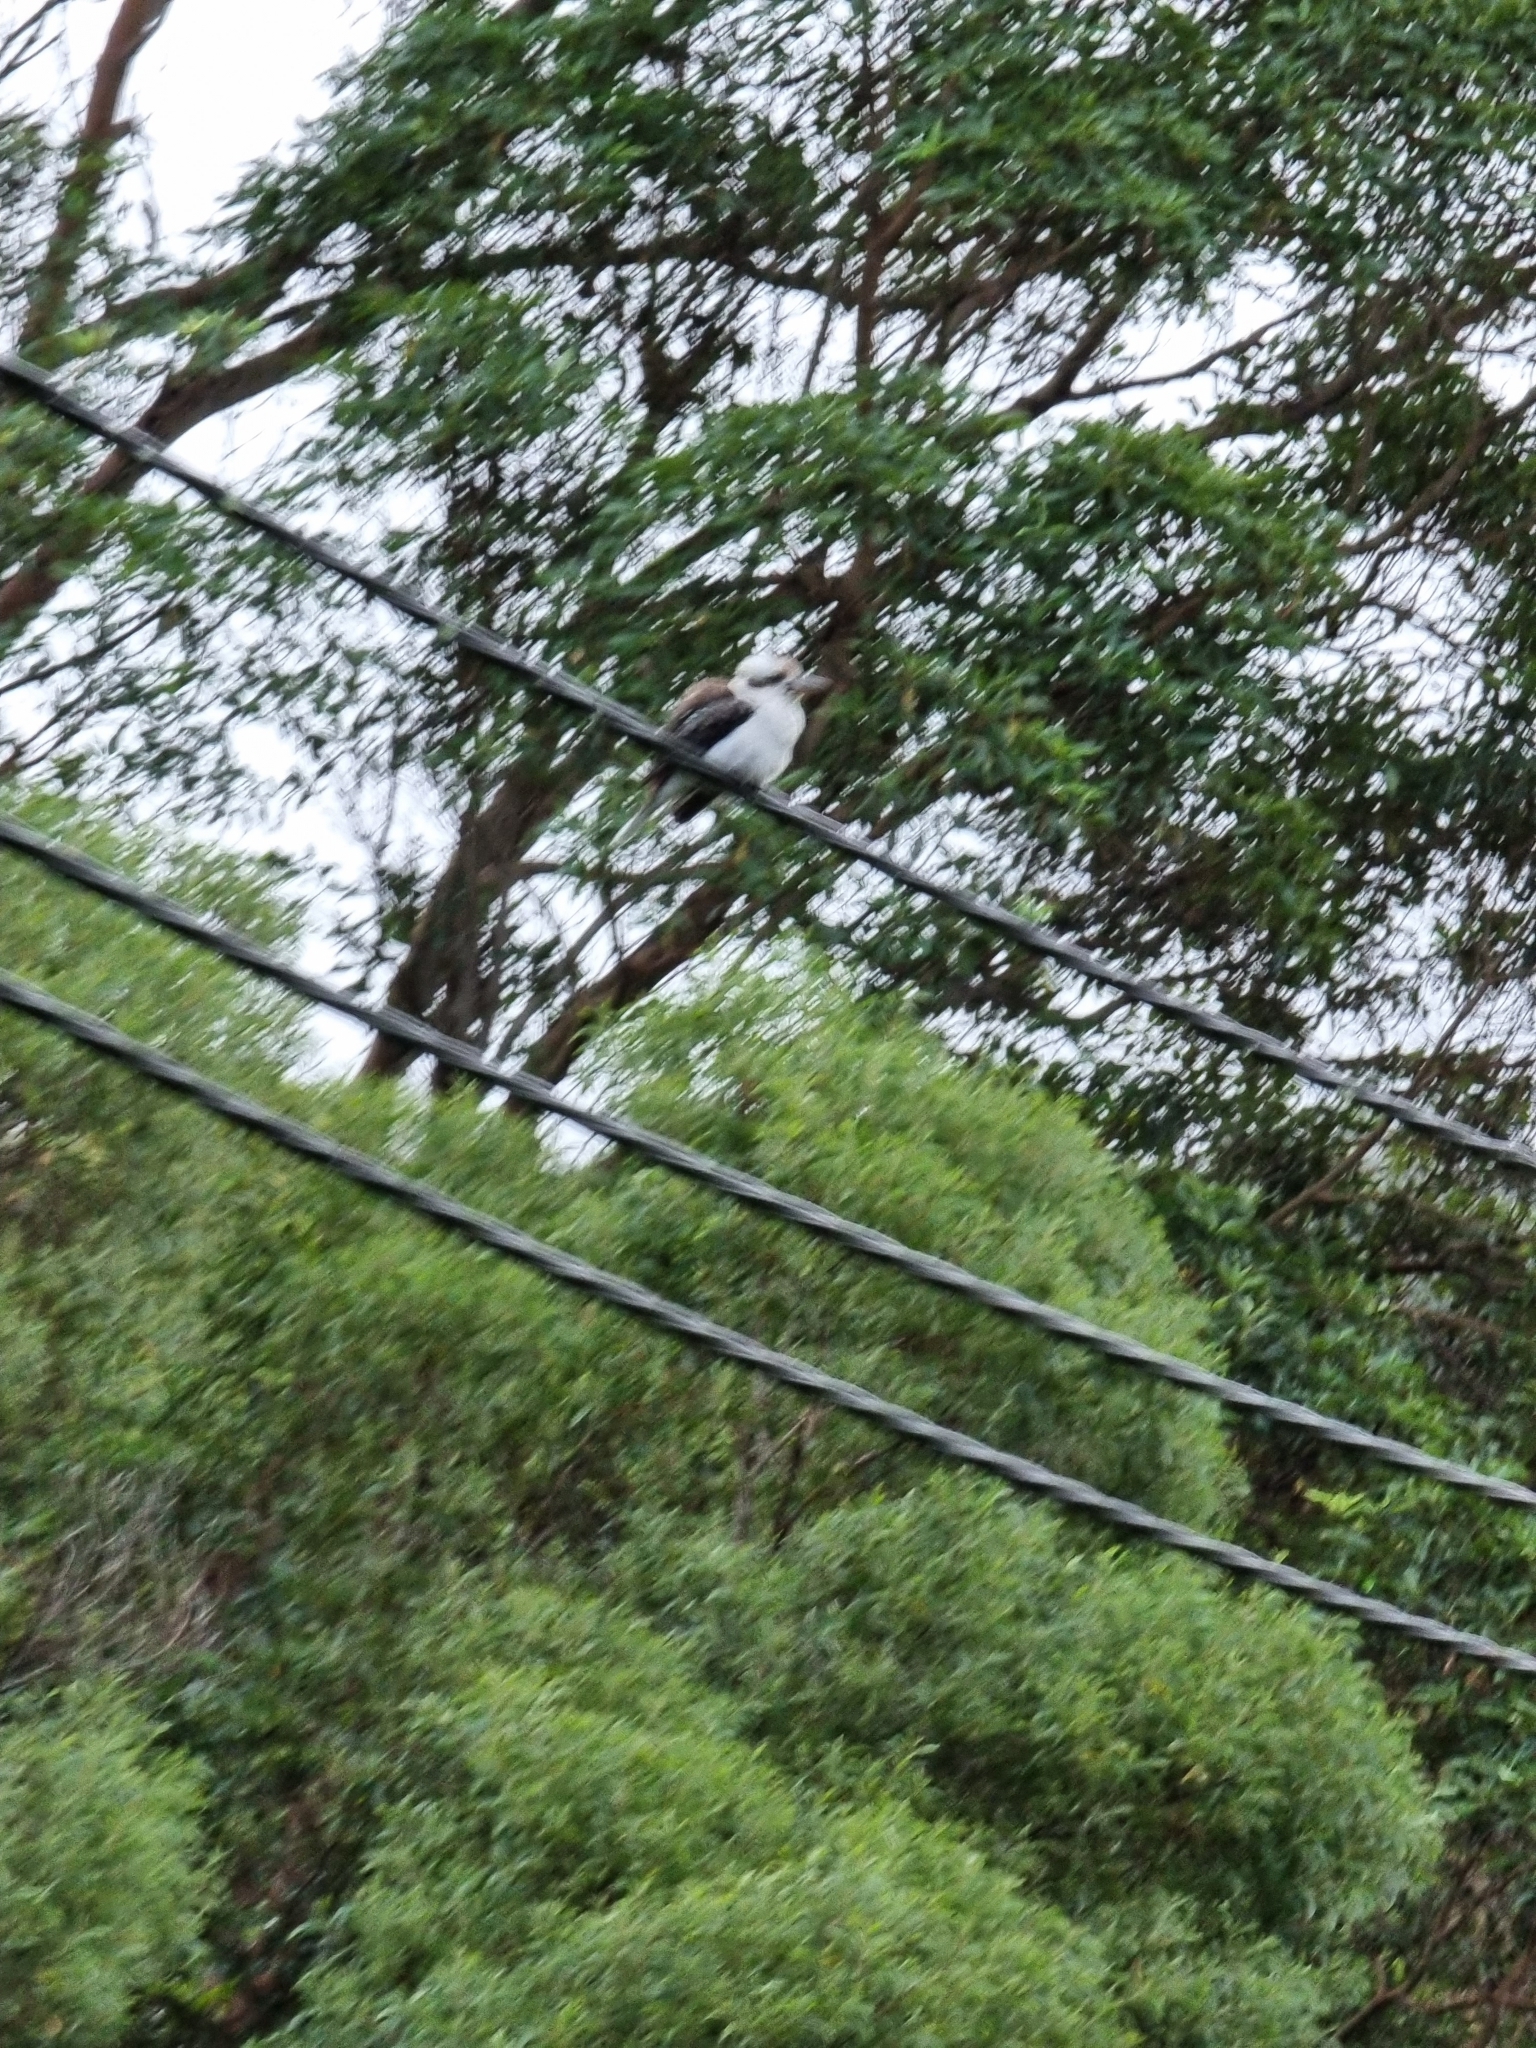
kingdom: Animalia
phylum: Chordata
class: Aves
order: Coraciiformes
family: Alcedinidae
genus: Dacelo
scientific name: Dacelo novaeguineae
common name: Laughing kookaburra
